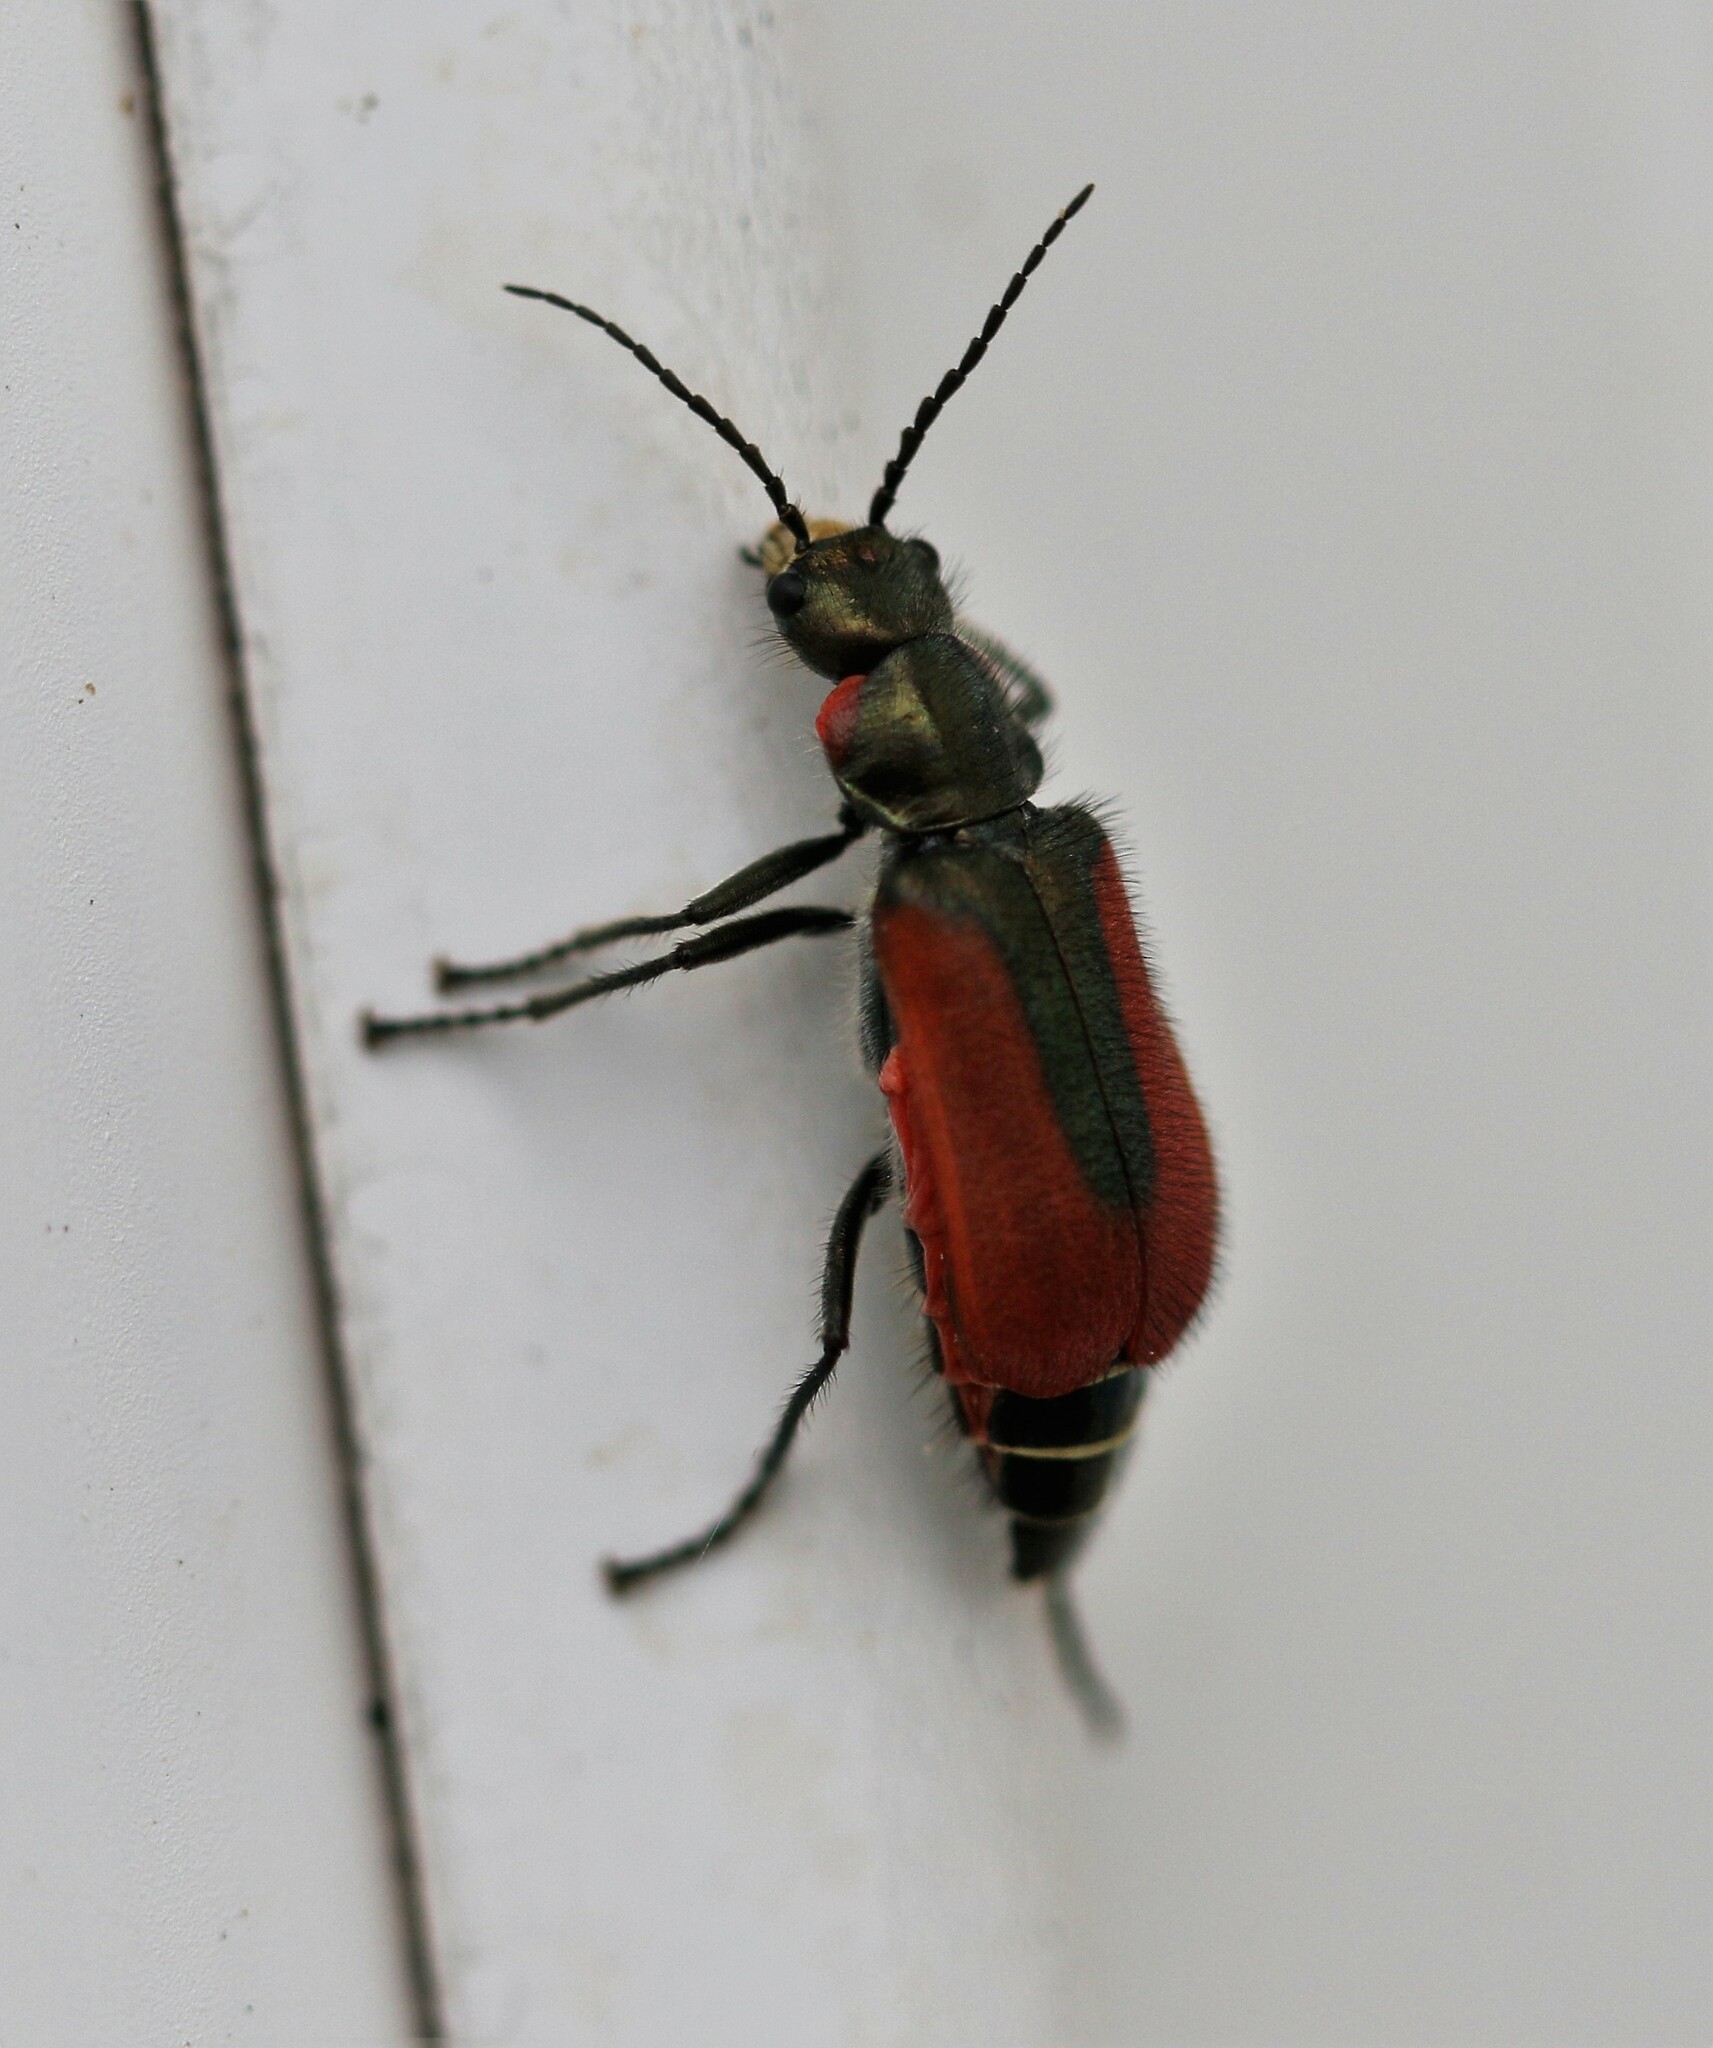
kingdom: Animalia
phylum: Arthropoda
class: Insecta
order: Coleoptera
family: Melyridae
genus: Malachius
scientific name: Malachius aeneus
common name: Scarlet malachite beetle
